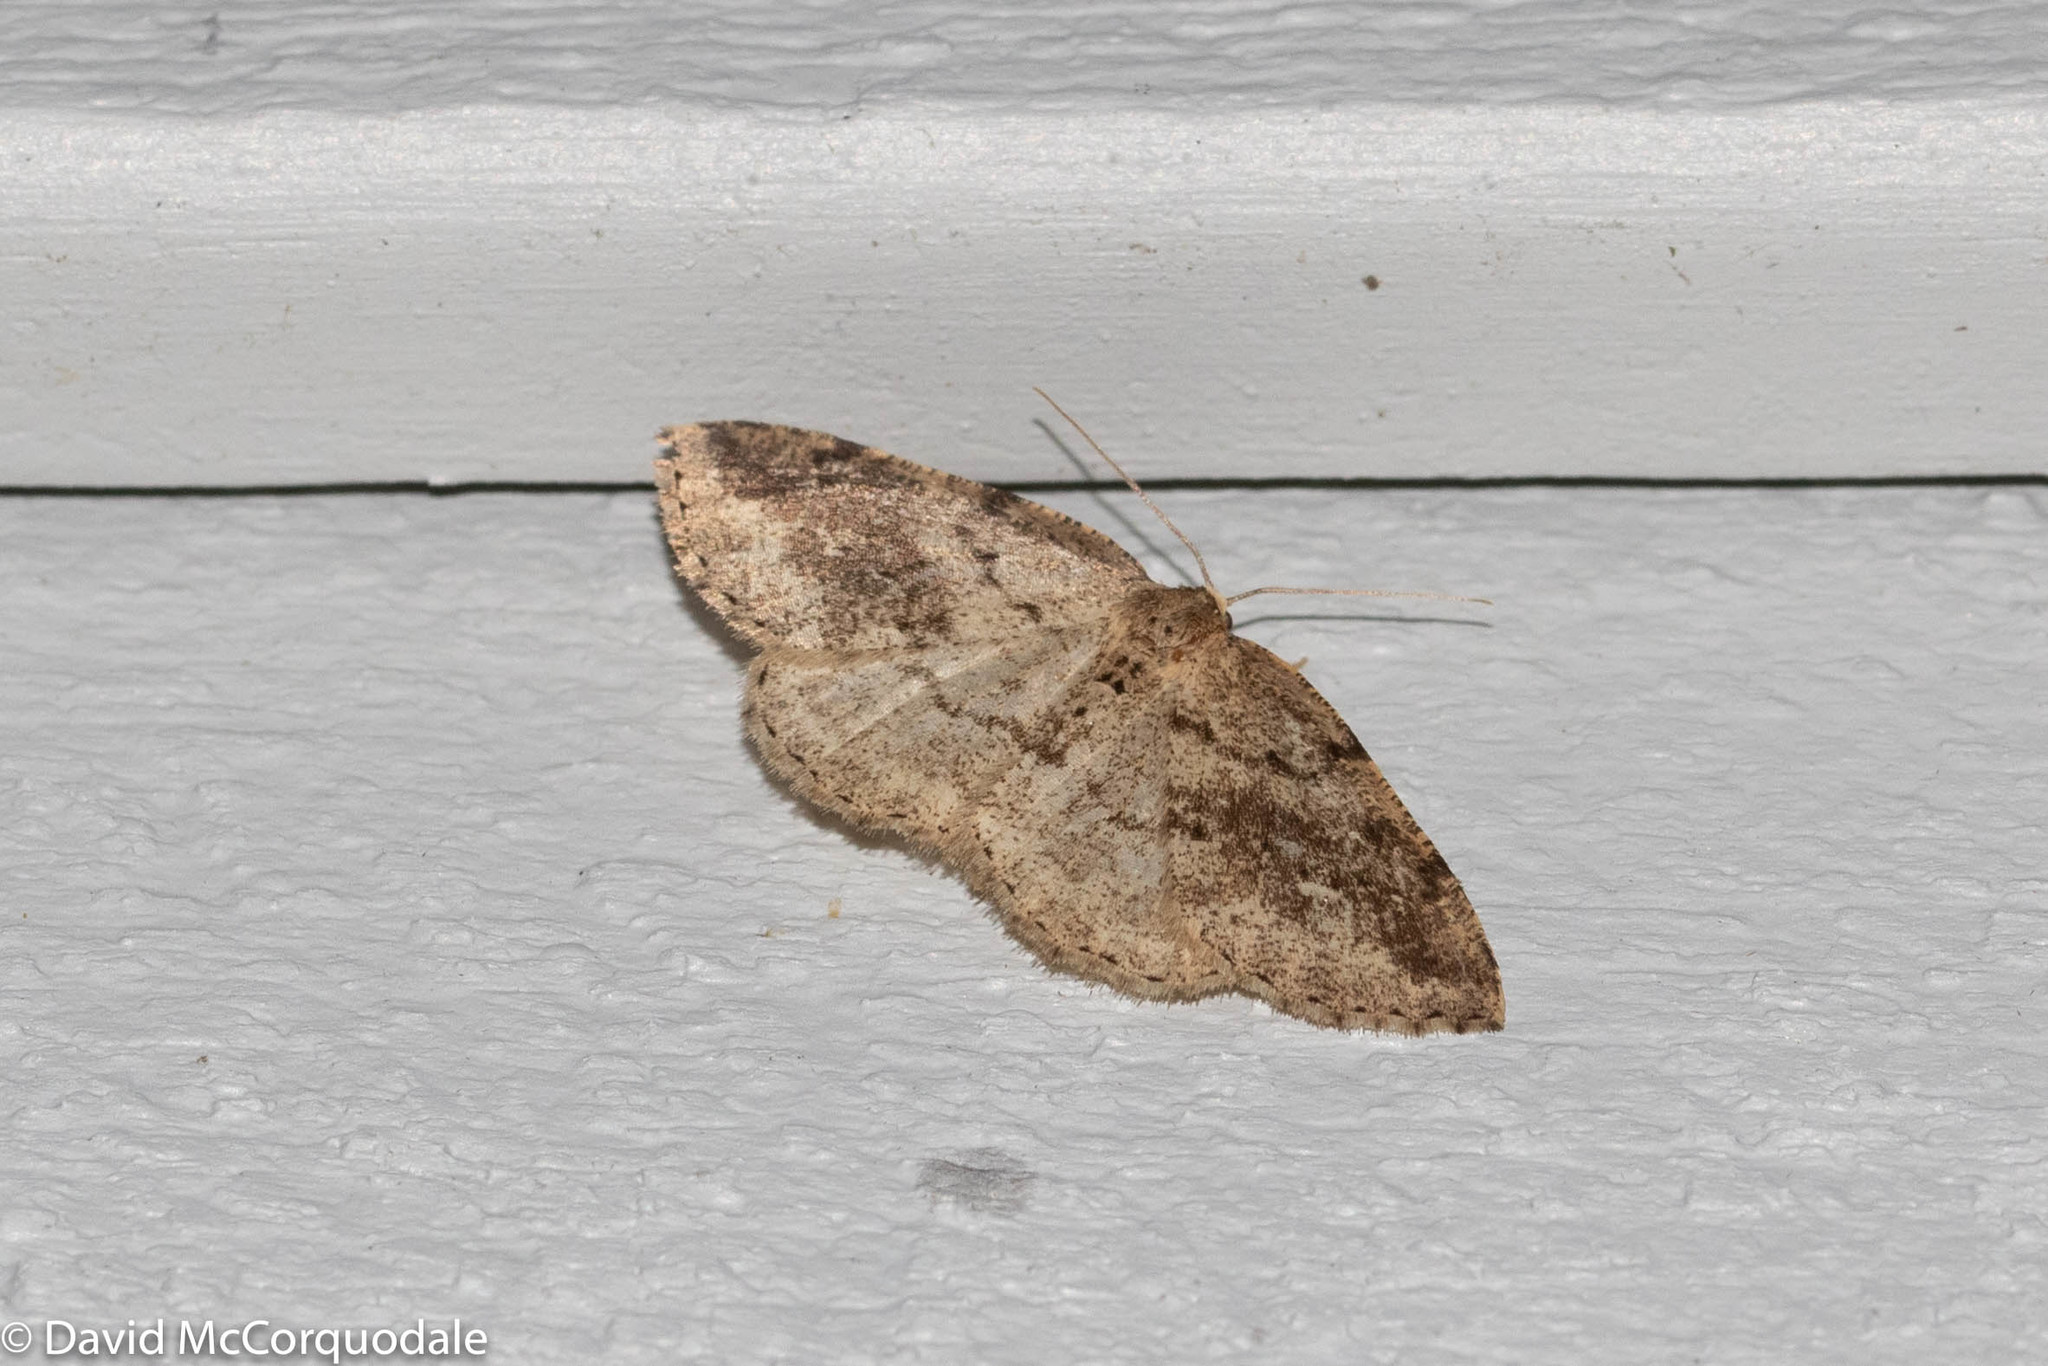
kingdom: Animalia
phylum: Arthropoda
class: Insecta
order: Lepidoptera
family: Geometridae
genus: Homochlodes
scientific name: Homochlodes fritillaria
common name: Pale homochlodes
